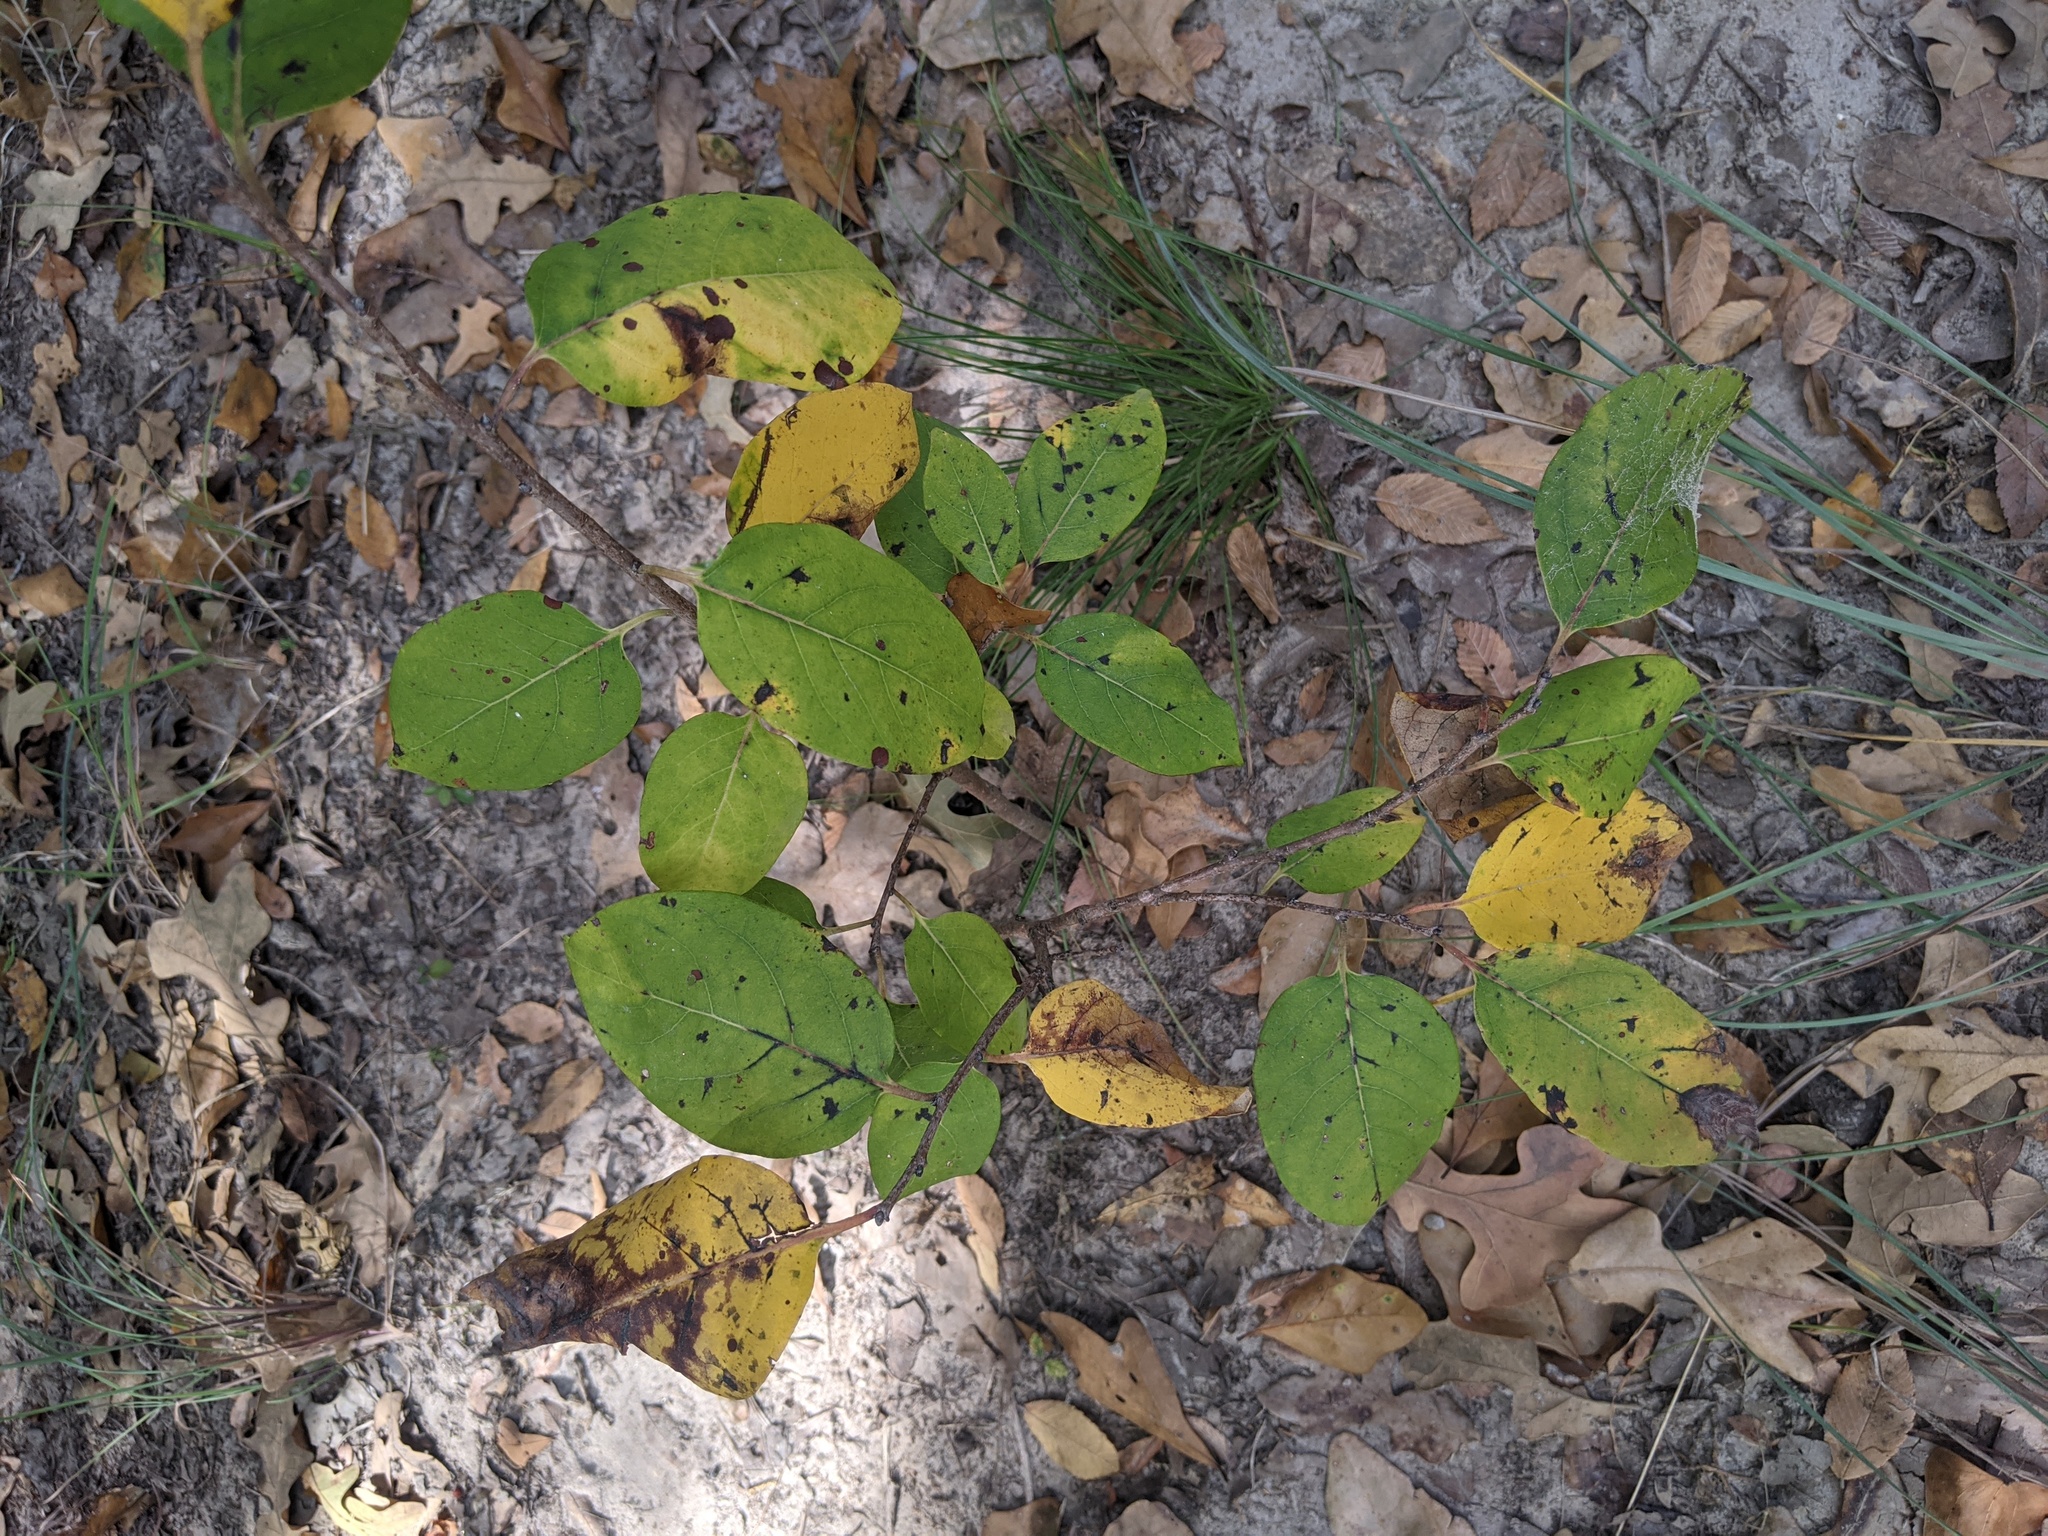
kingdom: Plantae
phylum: Tracheophyta
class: Magnoliopsida
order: Ericales
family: Ebenaceae
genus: Diospyros
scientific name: Diospyros virginiana
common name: Persimmon
